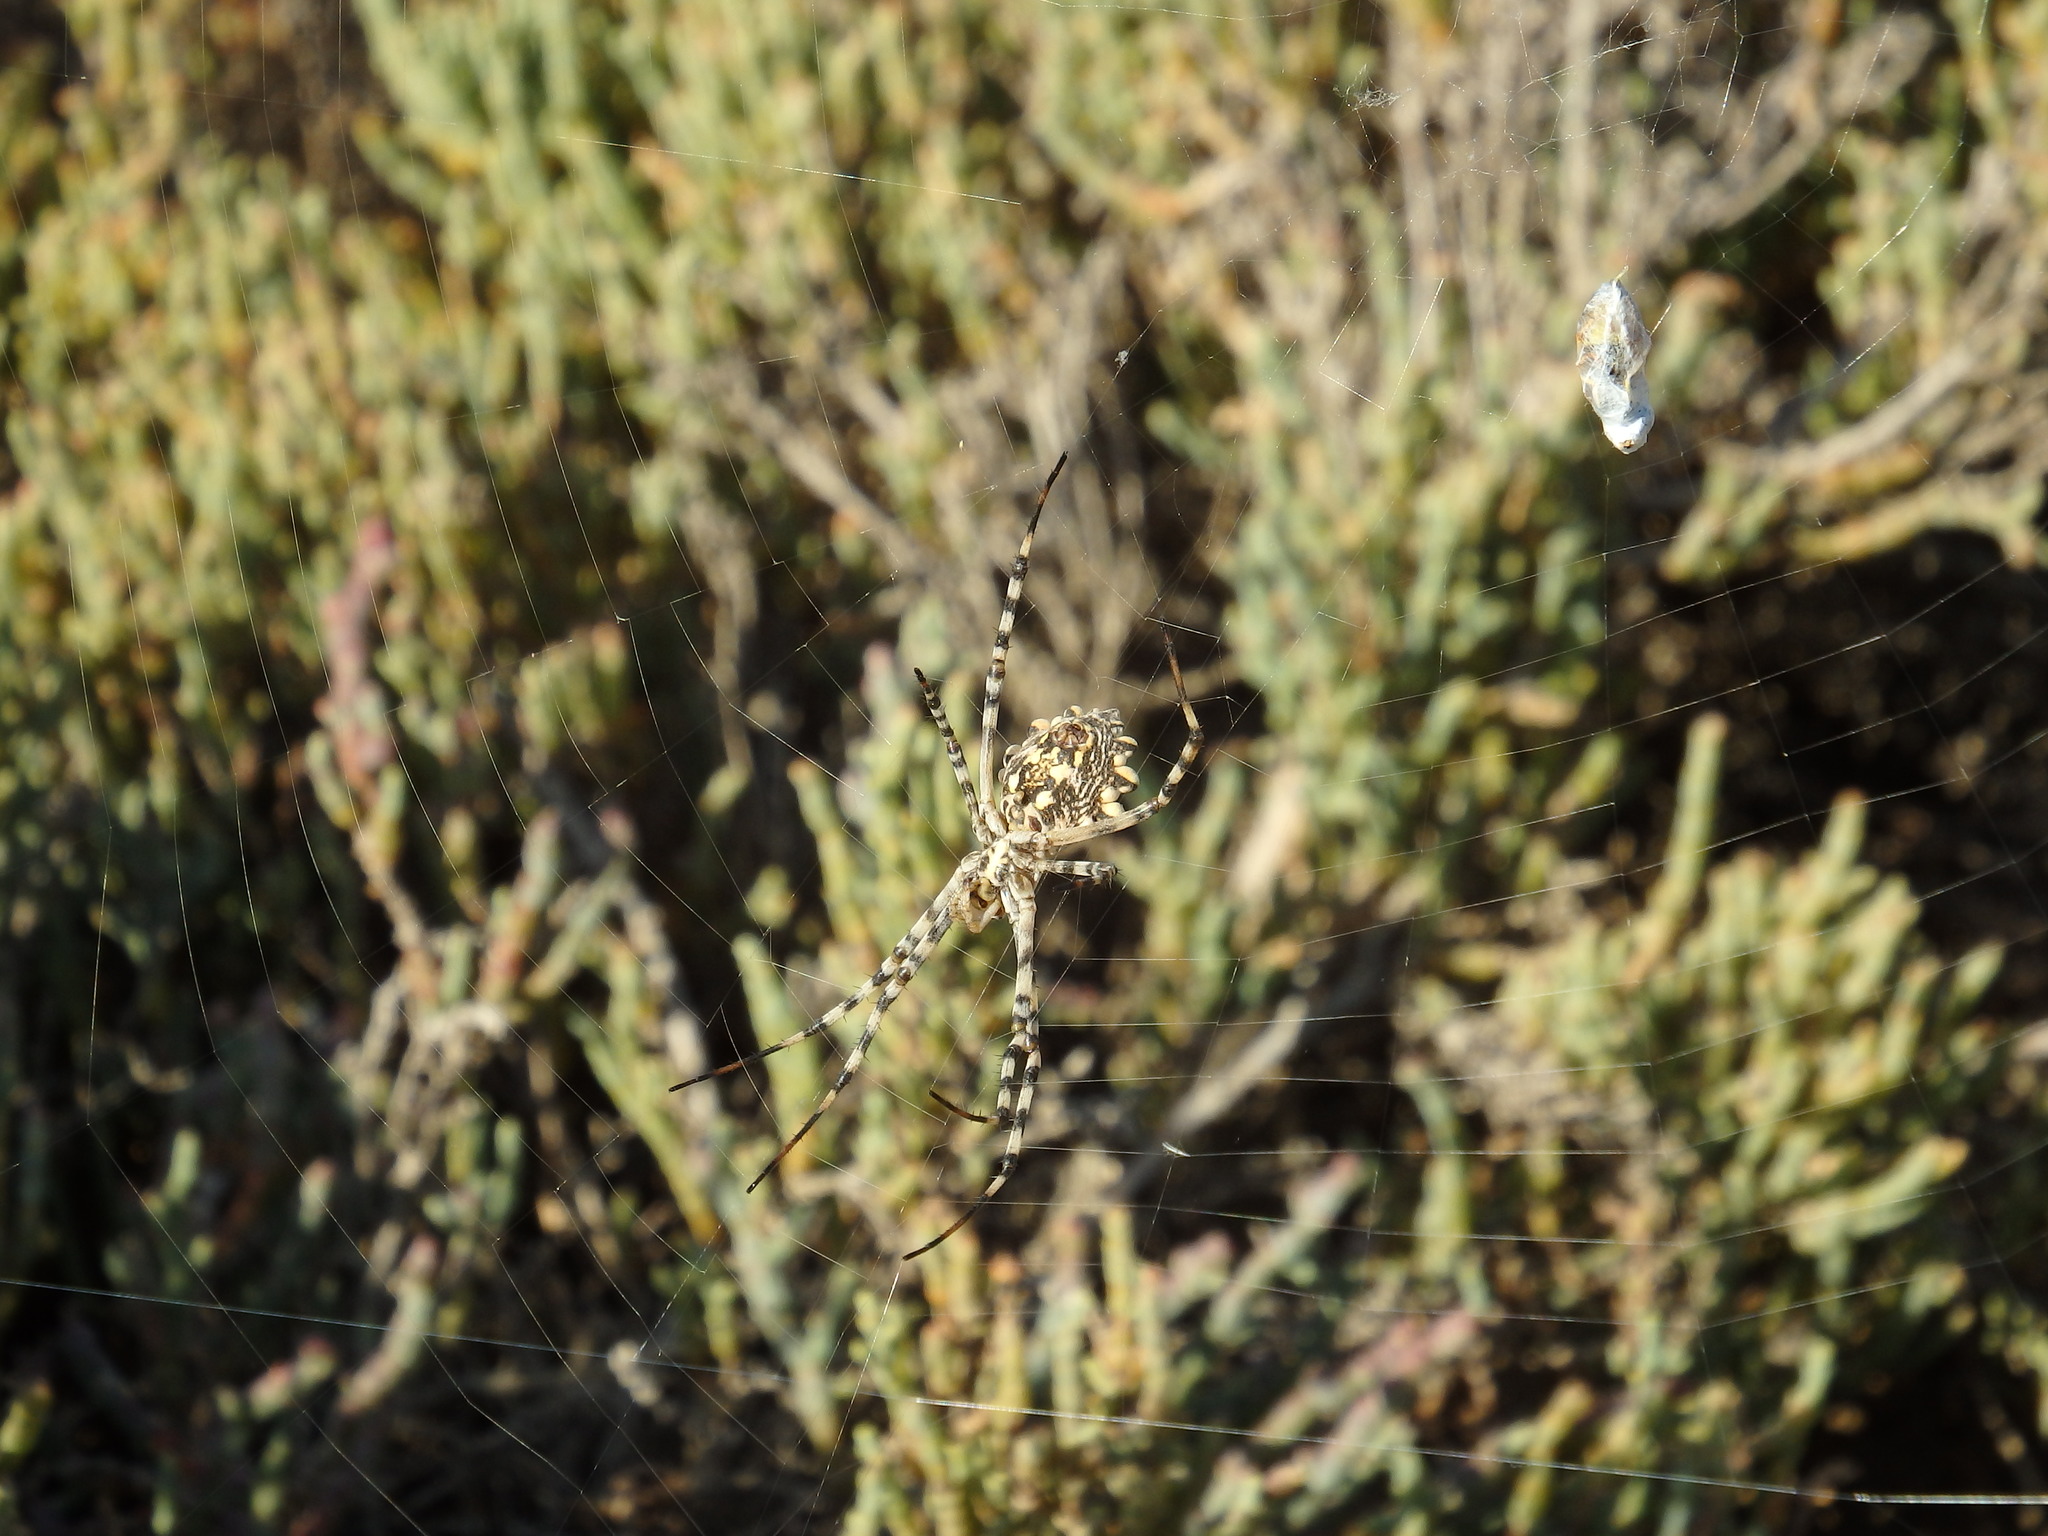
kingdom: Animalia
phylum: Arthropoda
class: Arachnida
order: Araneae
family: Araneidae
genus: Argiope
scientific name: Argiope lobata
